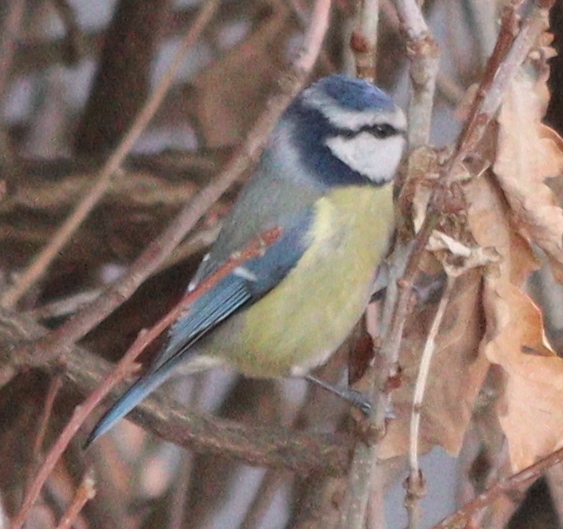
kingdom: Animalia
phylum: Chordata
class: Aves
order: Passeriformes
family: Paridae
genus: Cyanistes
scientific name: Cyanistes caeruleus
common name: Eurasian blue tit
